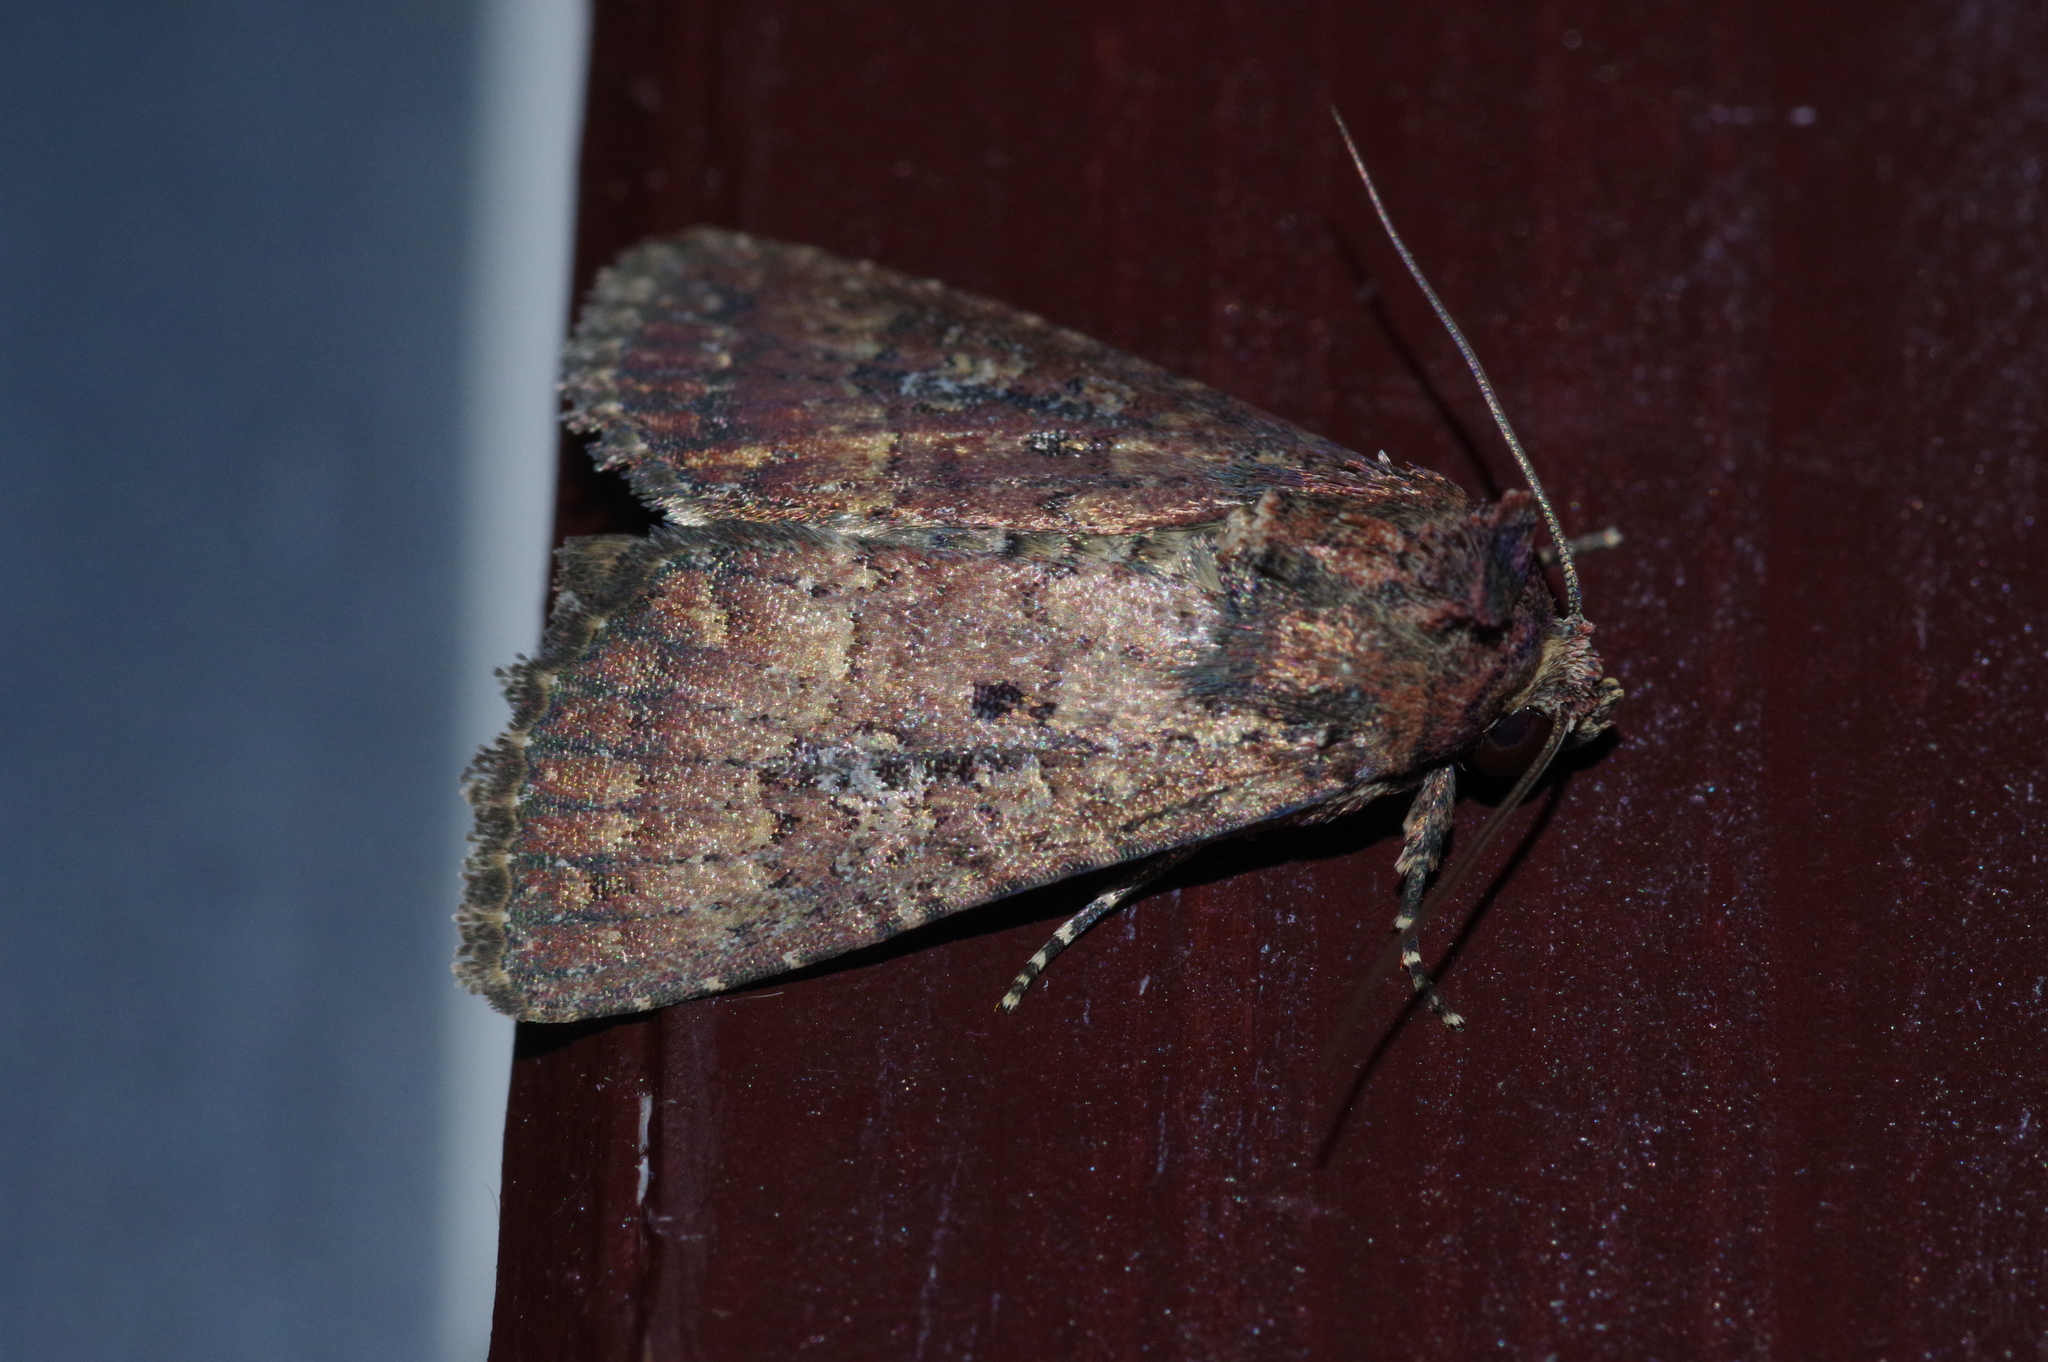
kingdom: Animalia
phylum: Arthropoda
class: Insecta
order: Lepidoptera
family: Noctuidae
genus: Condica
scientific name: Condica illecta
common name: Cutworm
